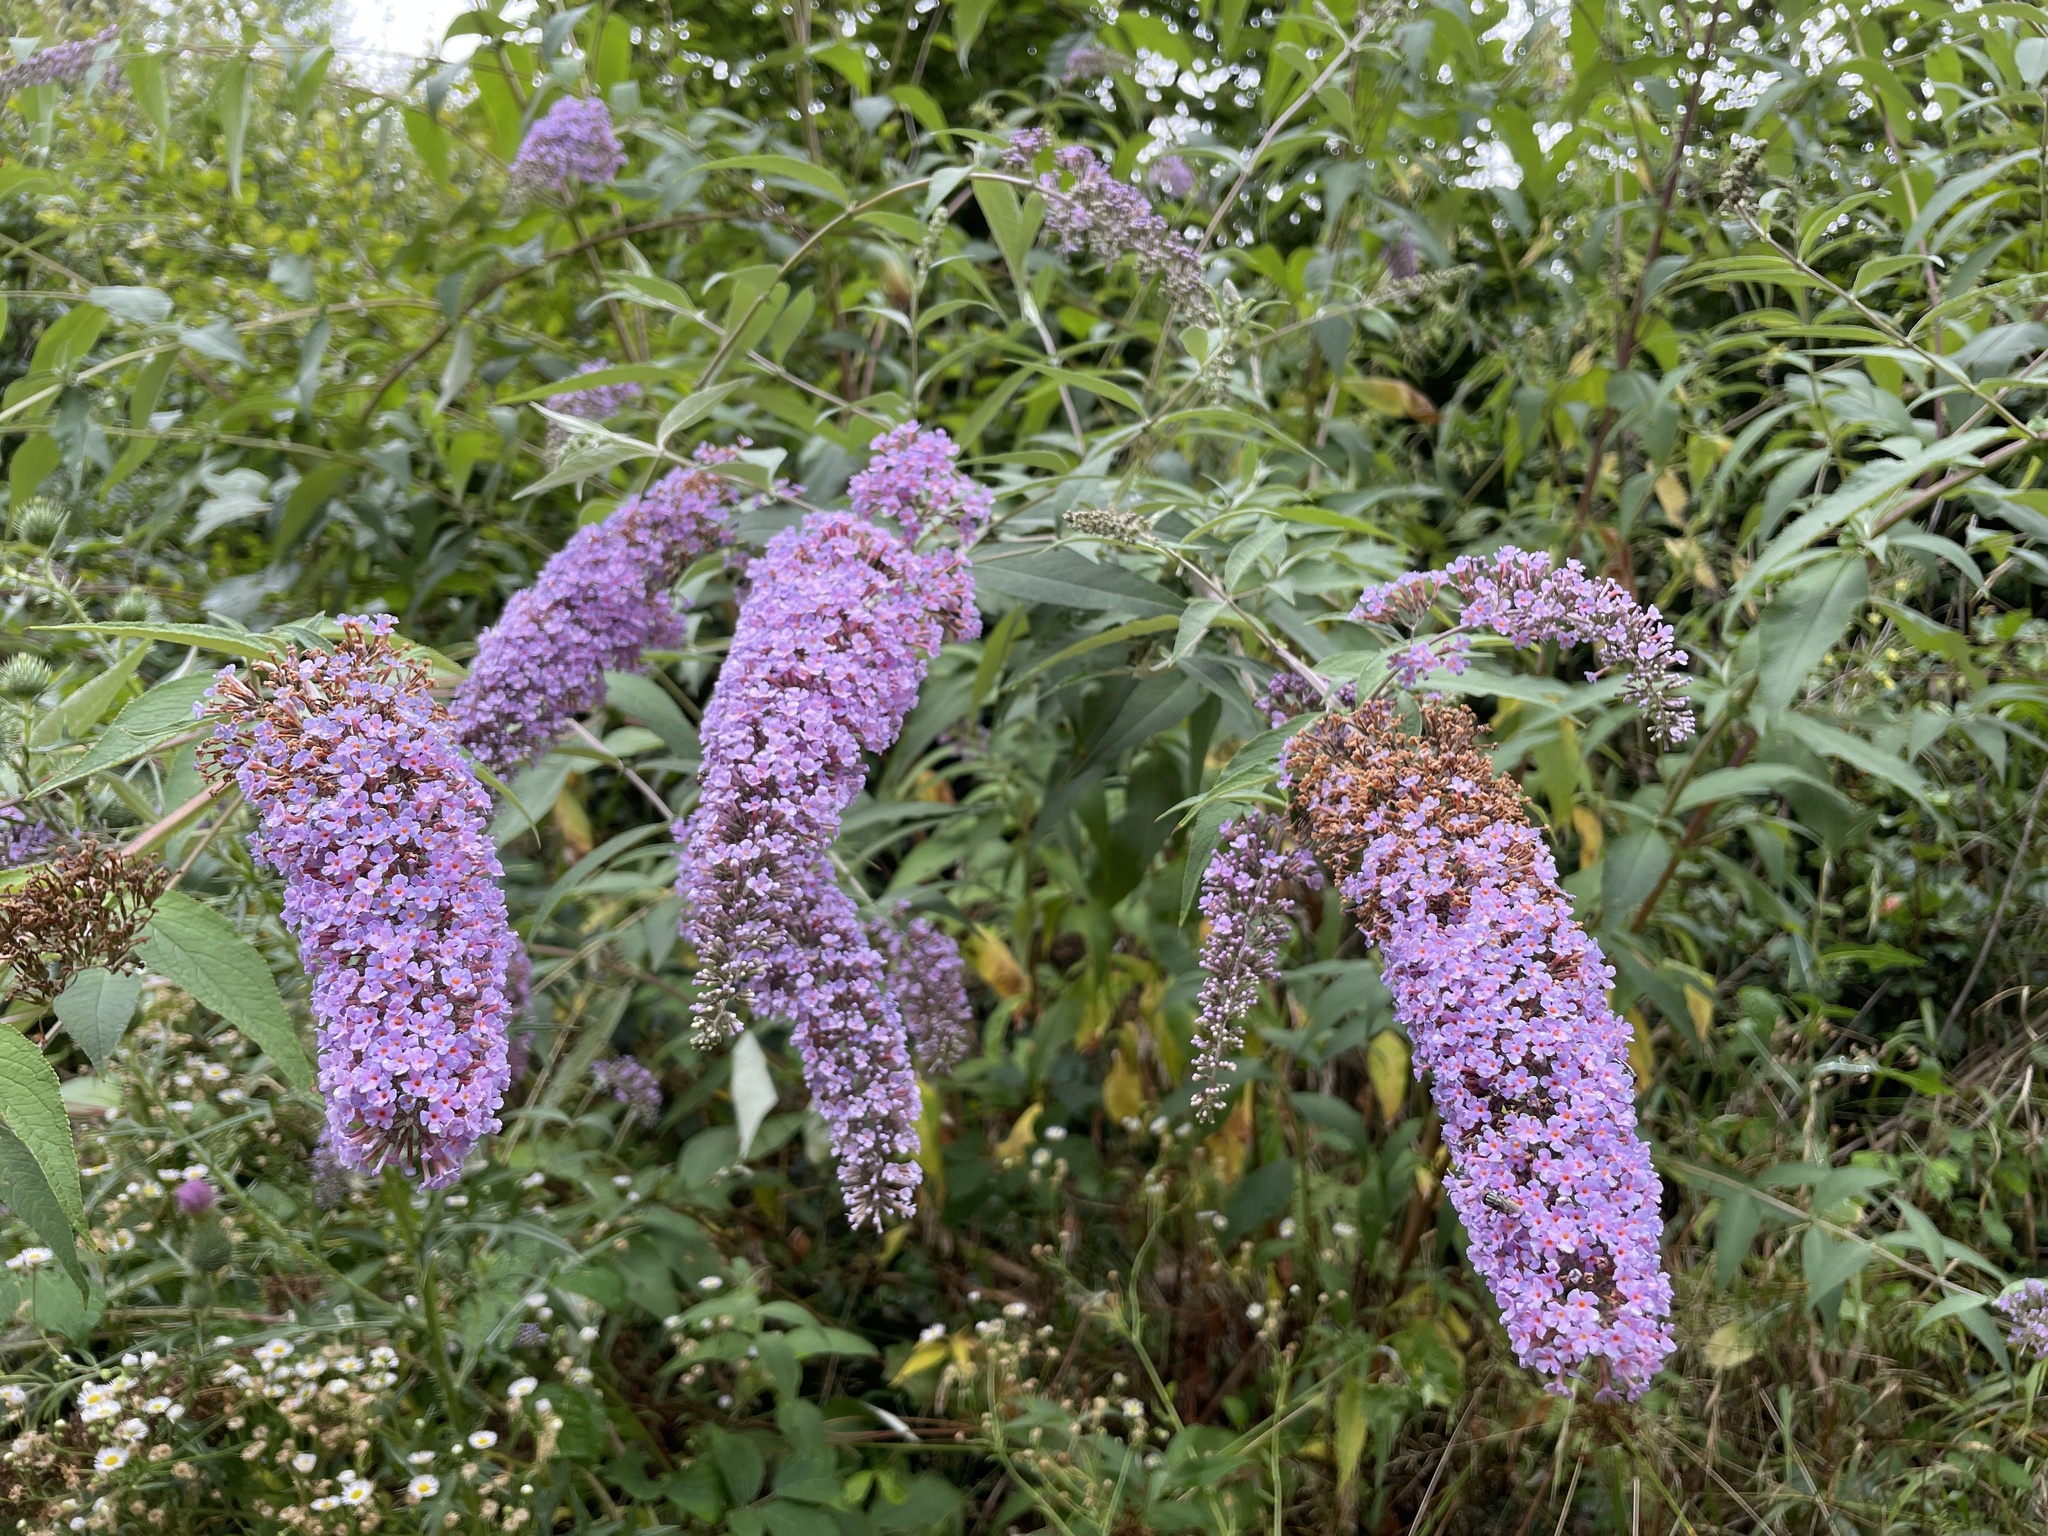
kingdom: Plantae
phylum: Tracheophyta
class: Magnoliopsida
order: Lamiales
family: Scrophulariaceae
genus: Buddleja
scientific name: Buddleja davidii
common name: Butterfly-bush
